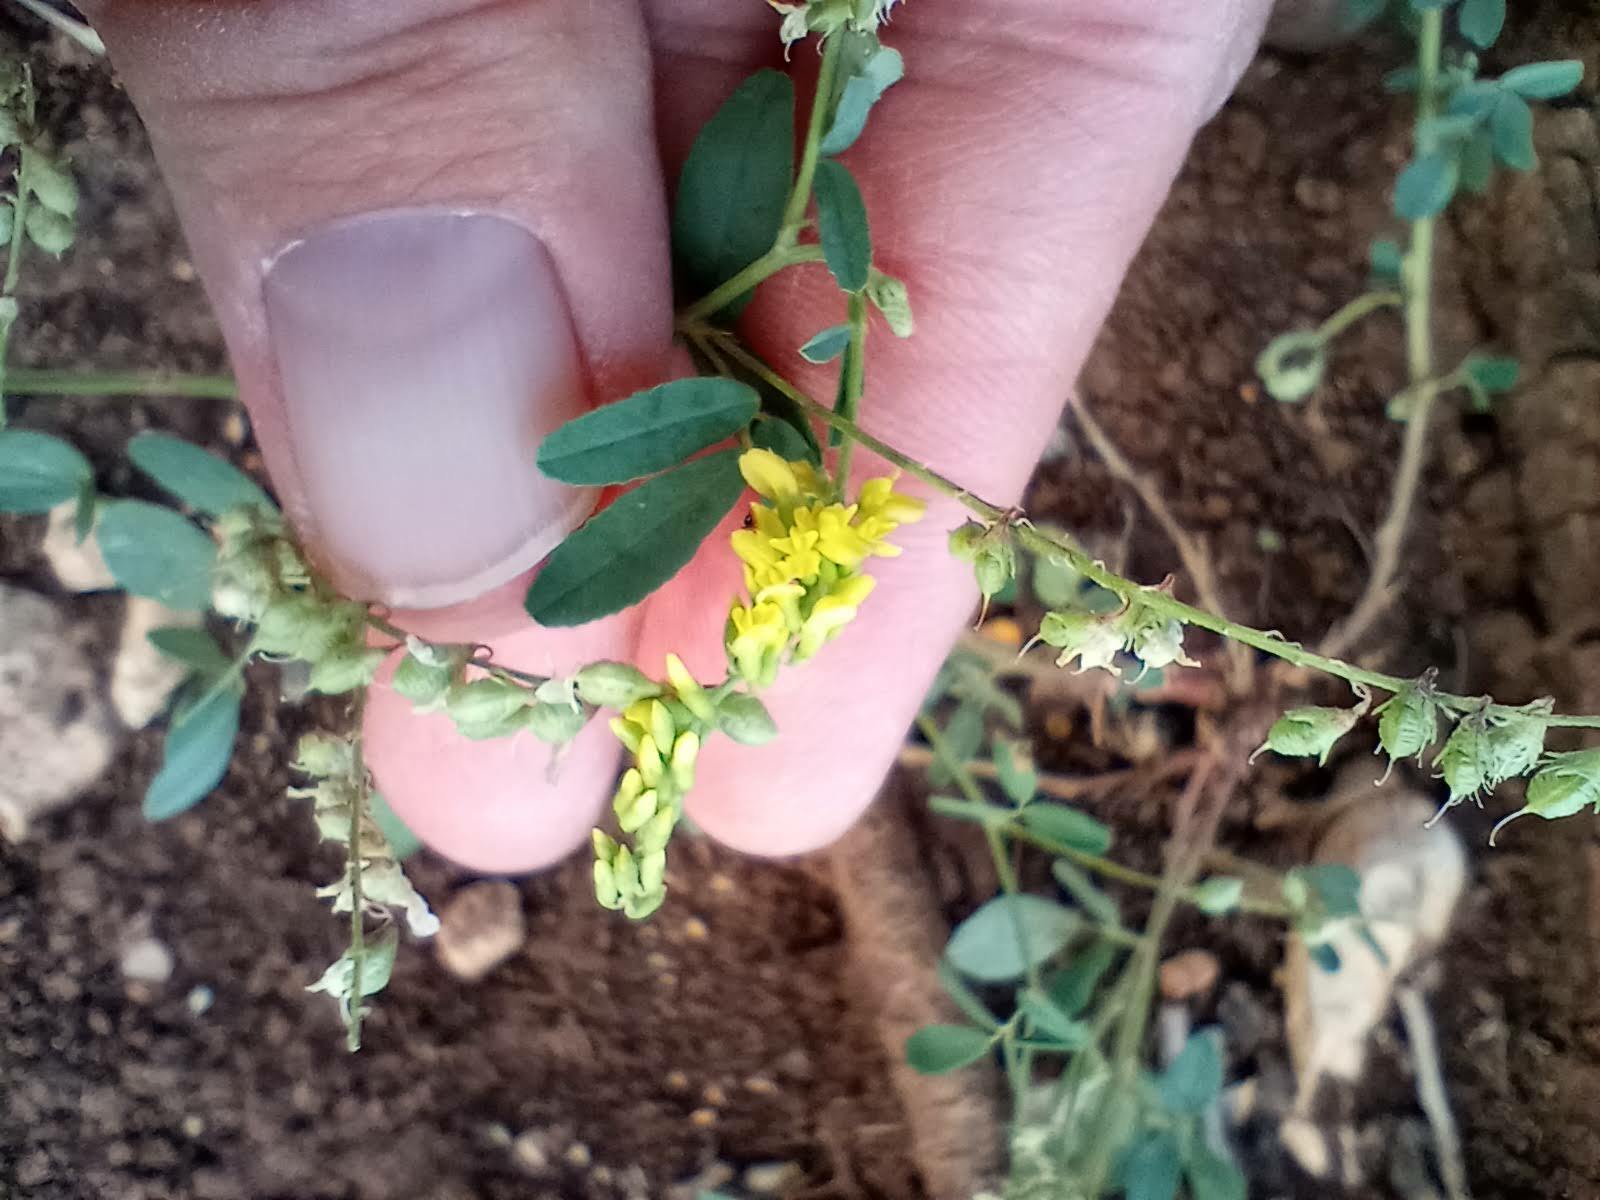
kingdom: Plantae
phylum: Tracheophyta
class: Magnoliopsida
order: Fabales
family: Fabaceae
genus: Melilotus
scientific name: Melilotus officinalis
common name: Sweetclover
